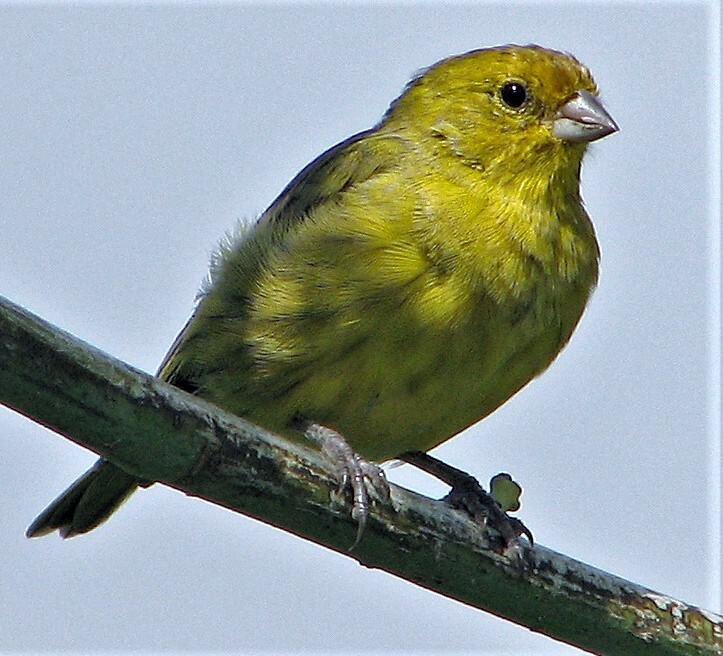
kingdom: Animalia
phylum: Chordata
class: Aves
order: Passeriformes
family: Thraupidae
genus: Sicalis
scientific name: Sicalis flaveola
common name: Saffron finch
